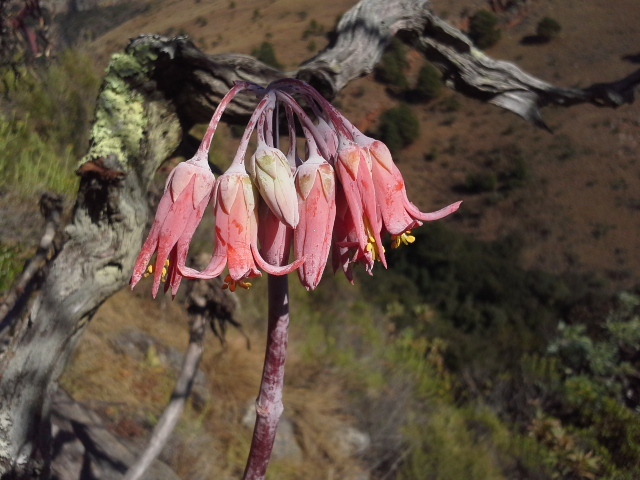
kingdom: Plantae
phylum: Tracheophyta
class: Magnoliopsida
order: Saxifragales
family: Crassulaceae
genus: Cotyledon
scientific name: Cotyledon orbiculata
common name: Pig's ear
